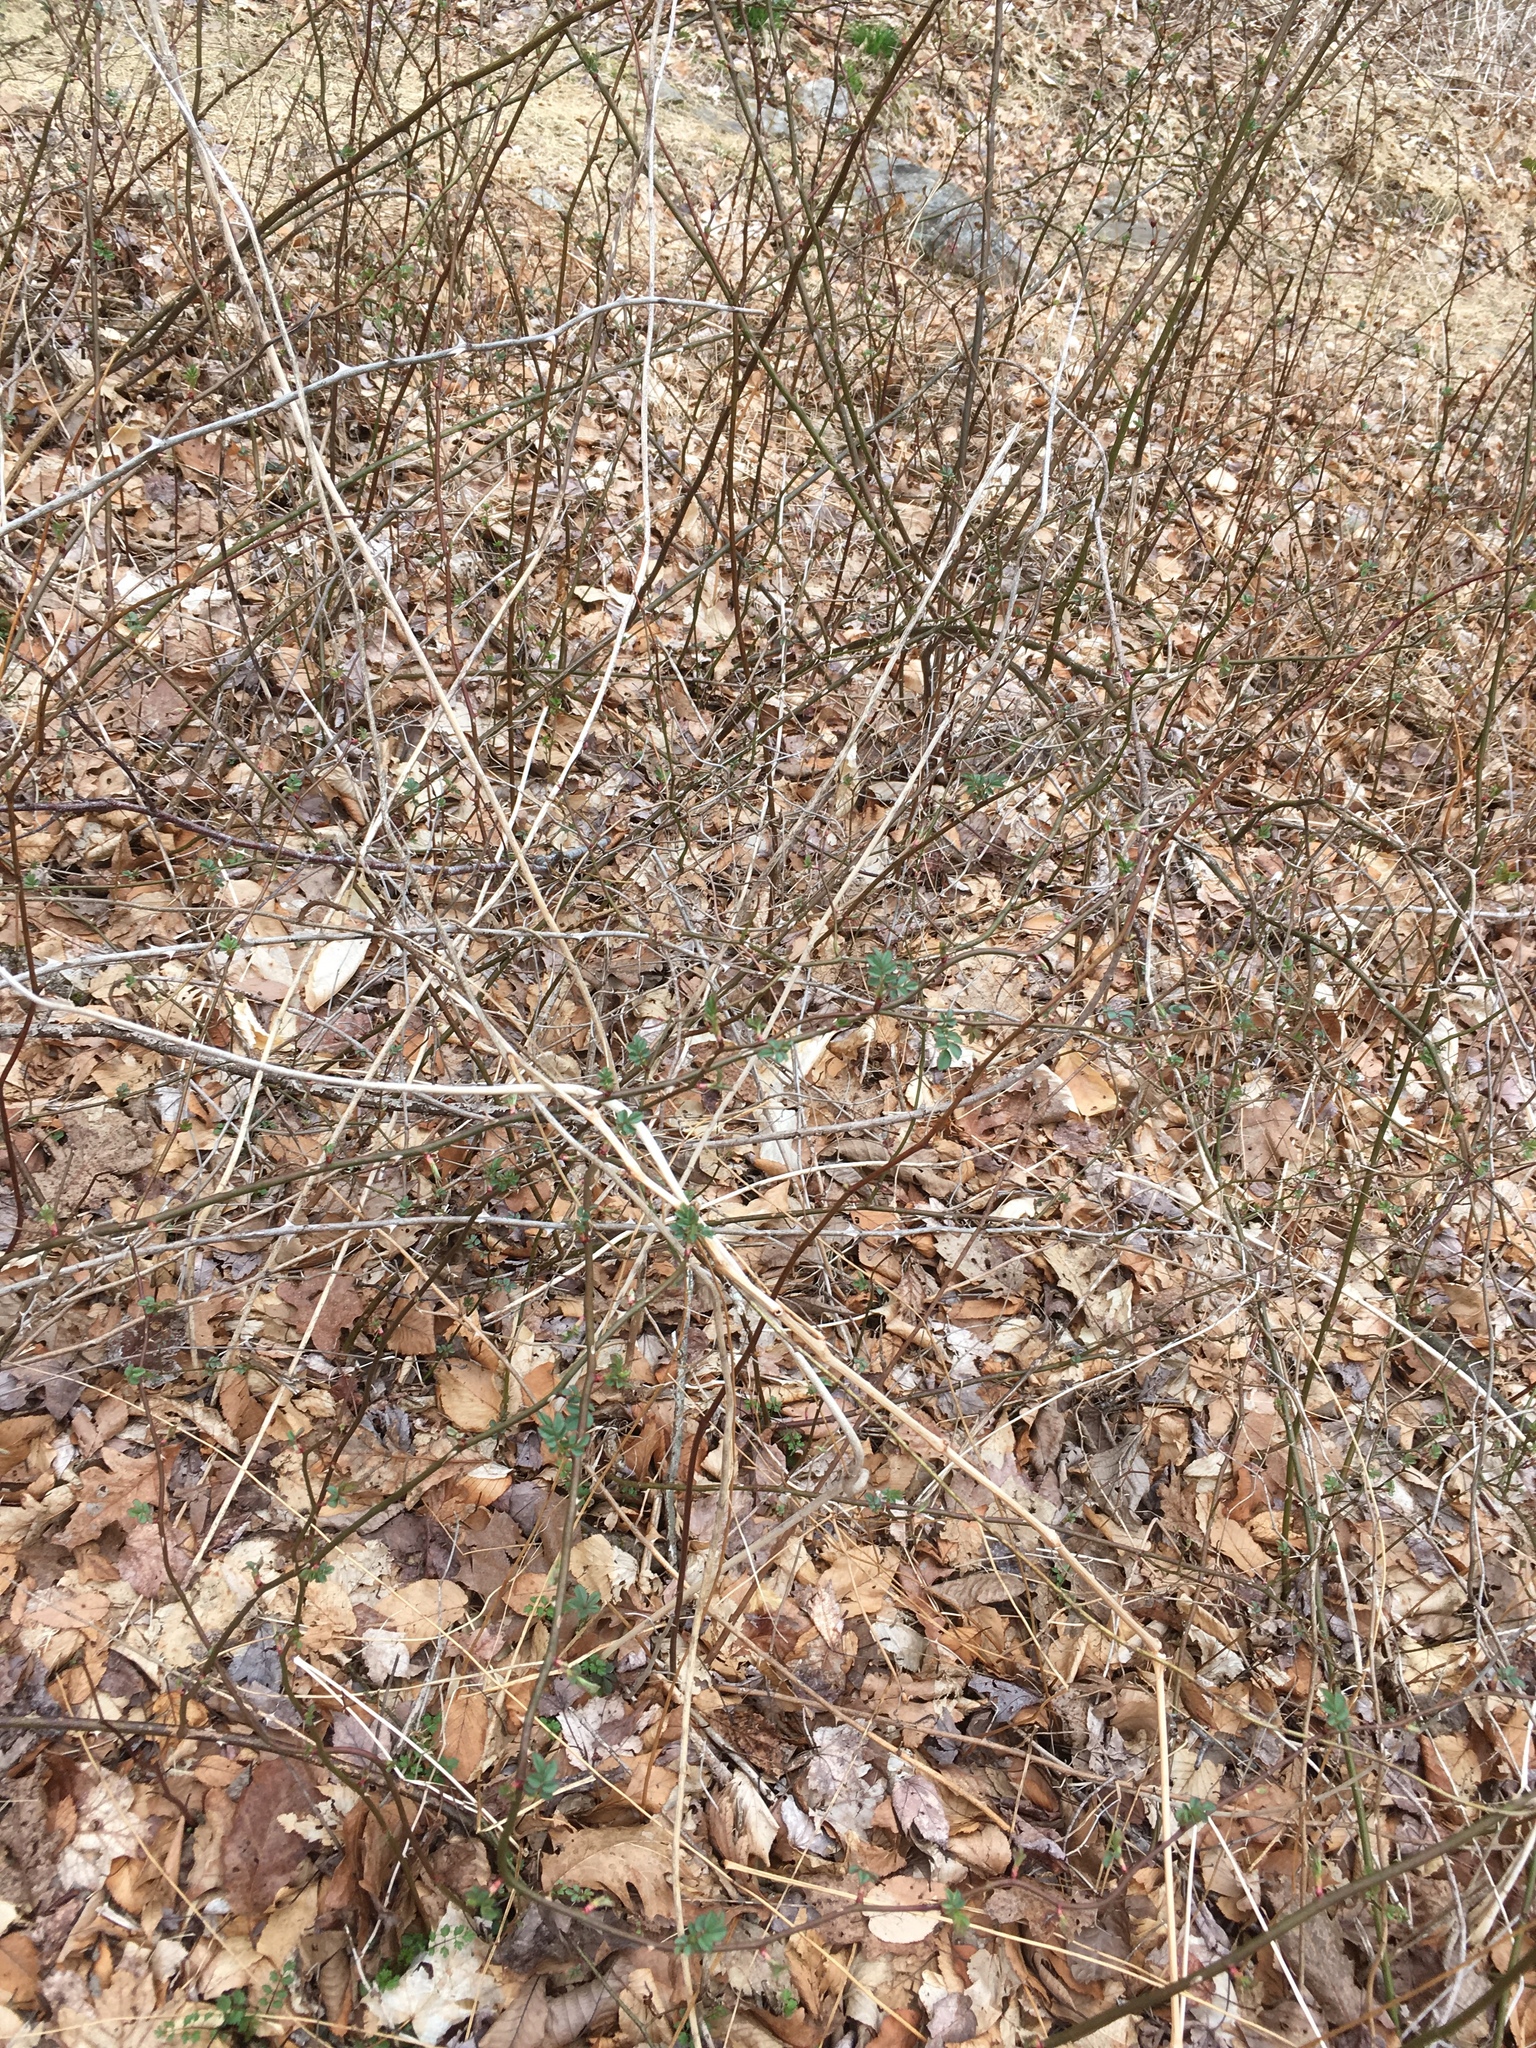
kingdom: Plantae
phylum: Tracheophyta
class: Magnoliopsida
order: Rosales
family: Rosaceae
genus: Rosa
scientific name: Rosa multiflora
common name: Multiflora rose
